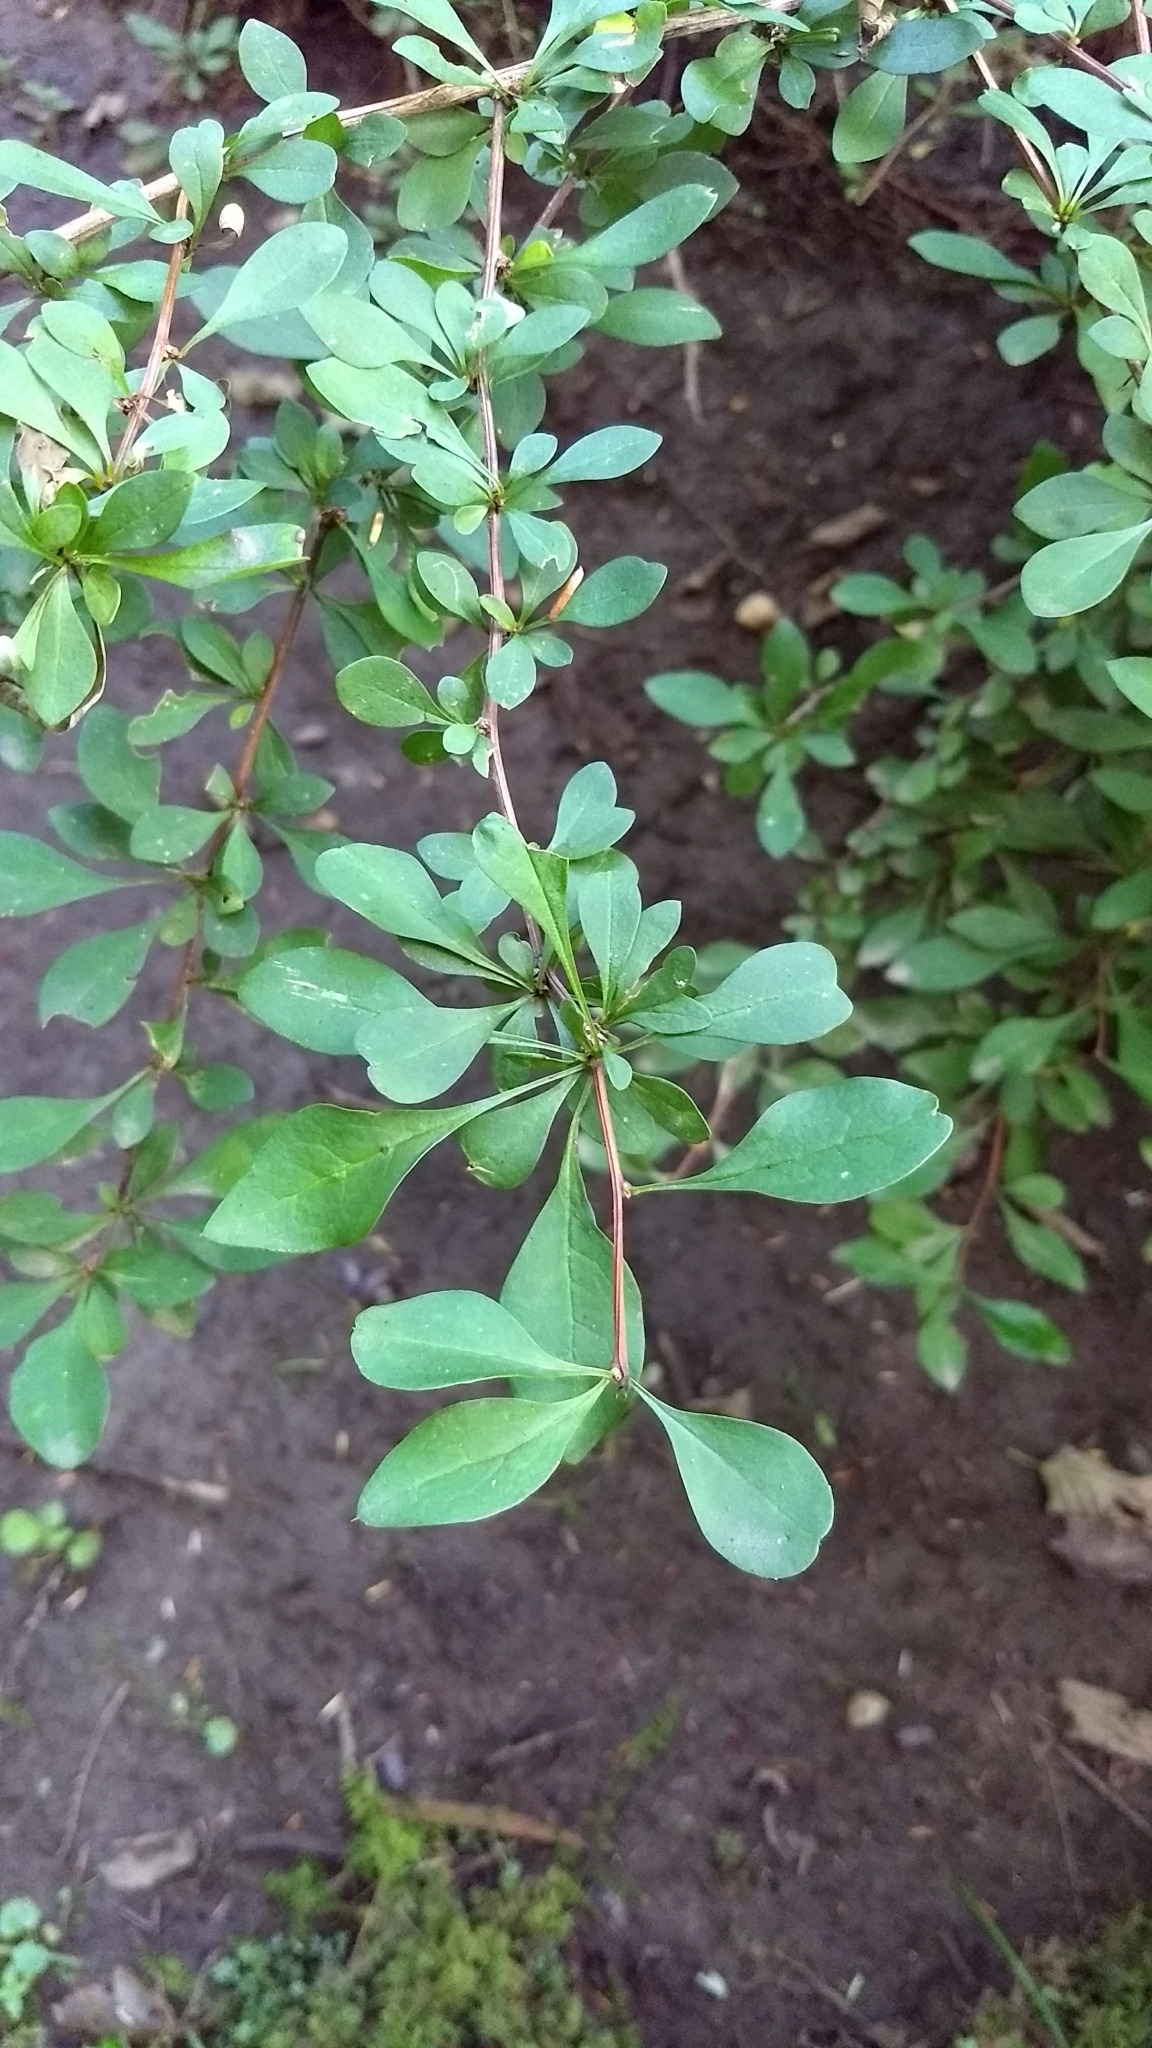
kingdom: Plantae
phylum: Tracheophyta
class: Magnoliopsida
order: Ranunculales
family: Berberidaceae
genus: Berberis
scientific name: Berberis thunbergii
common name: Japanese barberry
